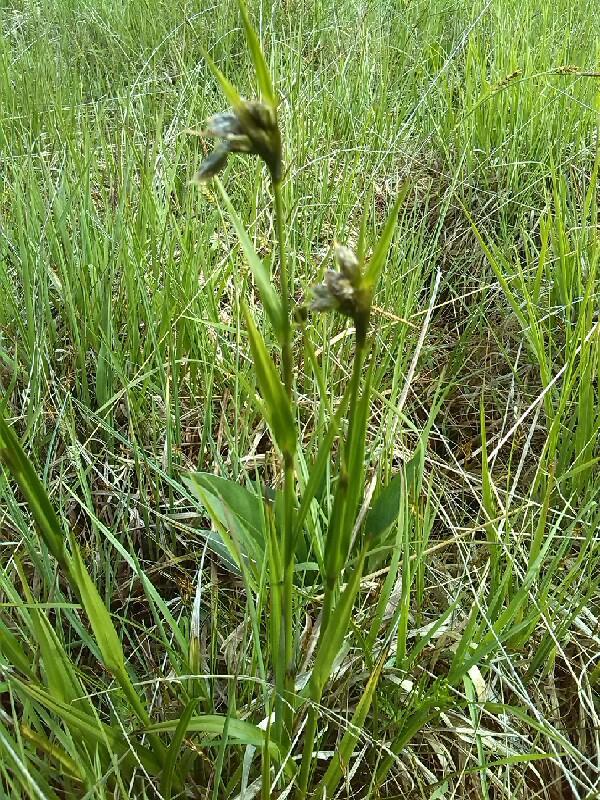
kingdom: Plantae
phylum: Tracheophyta
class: Liliopsida
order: Poales
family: Cyperaceae
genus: Eriophorum
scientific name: Eriophorum latifolium
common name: Broad-leaved cottongrass
